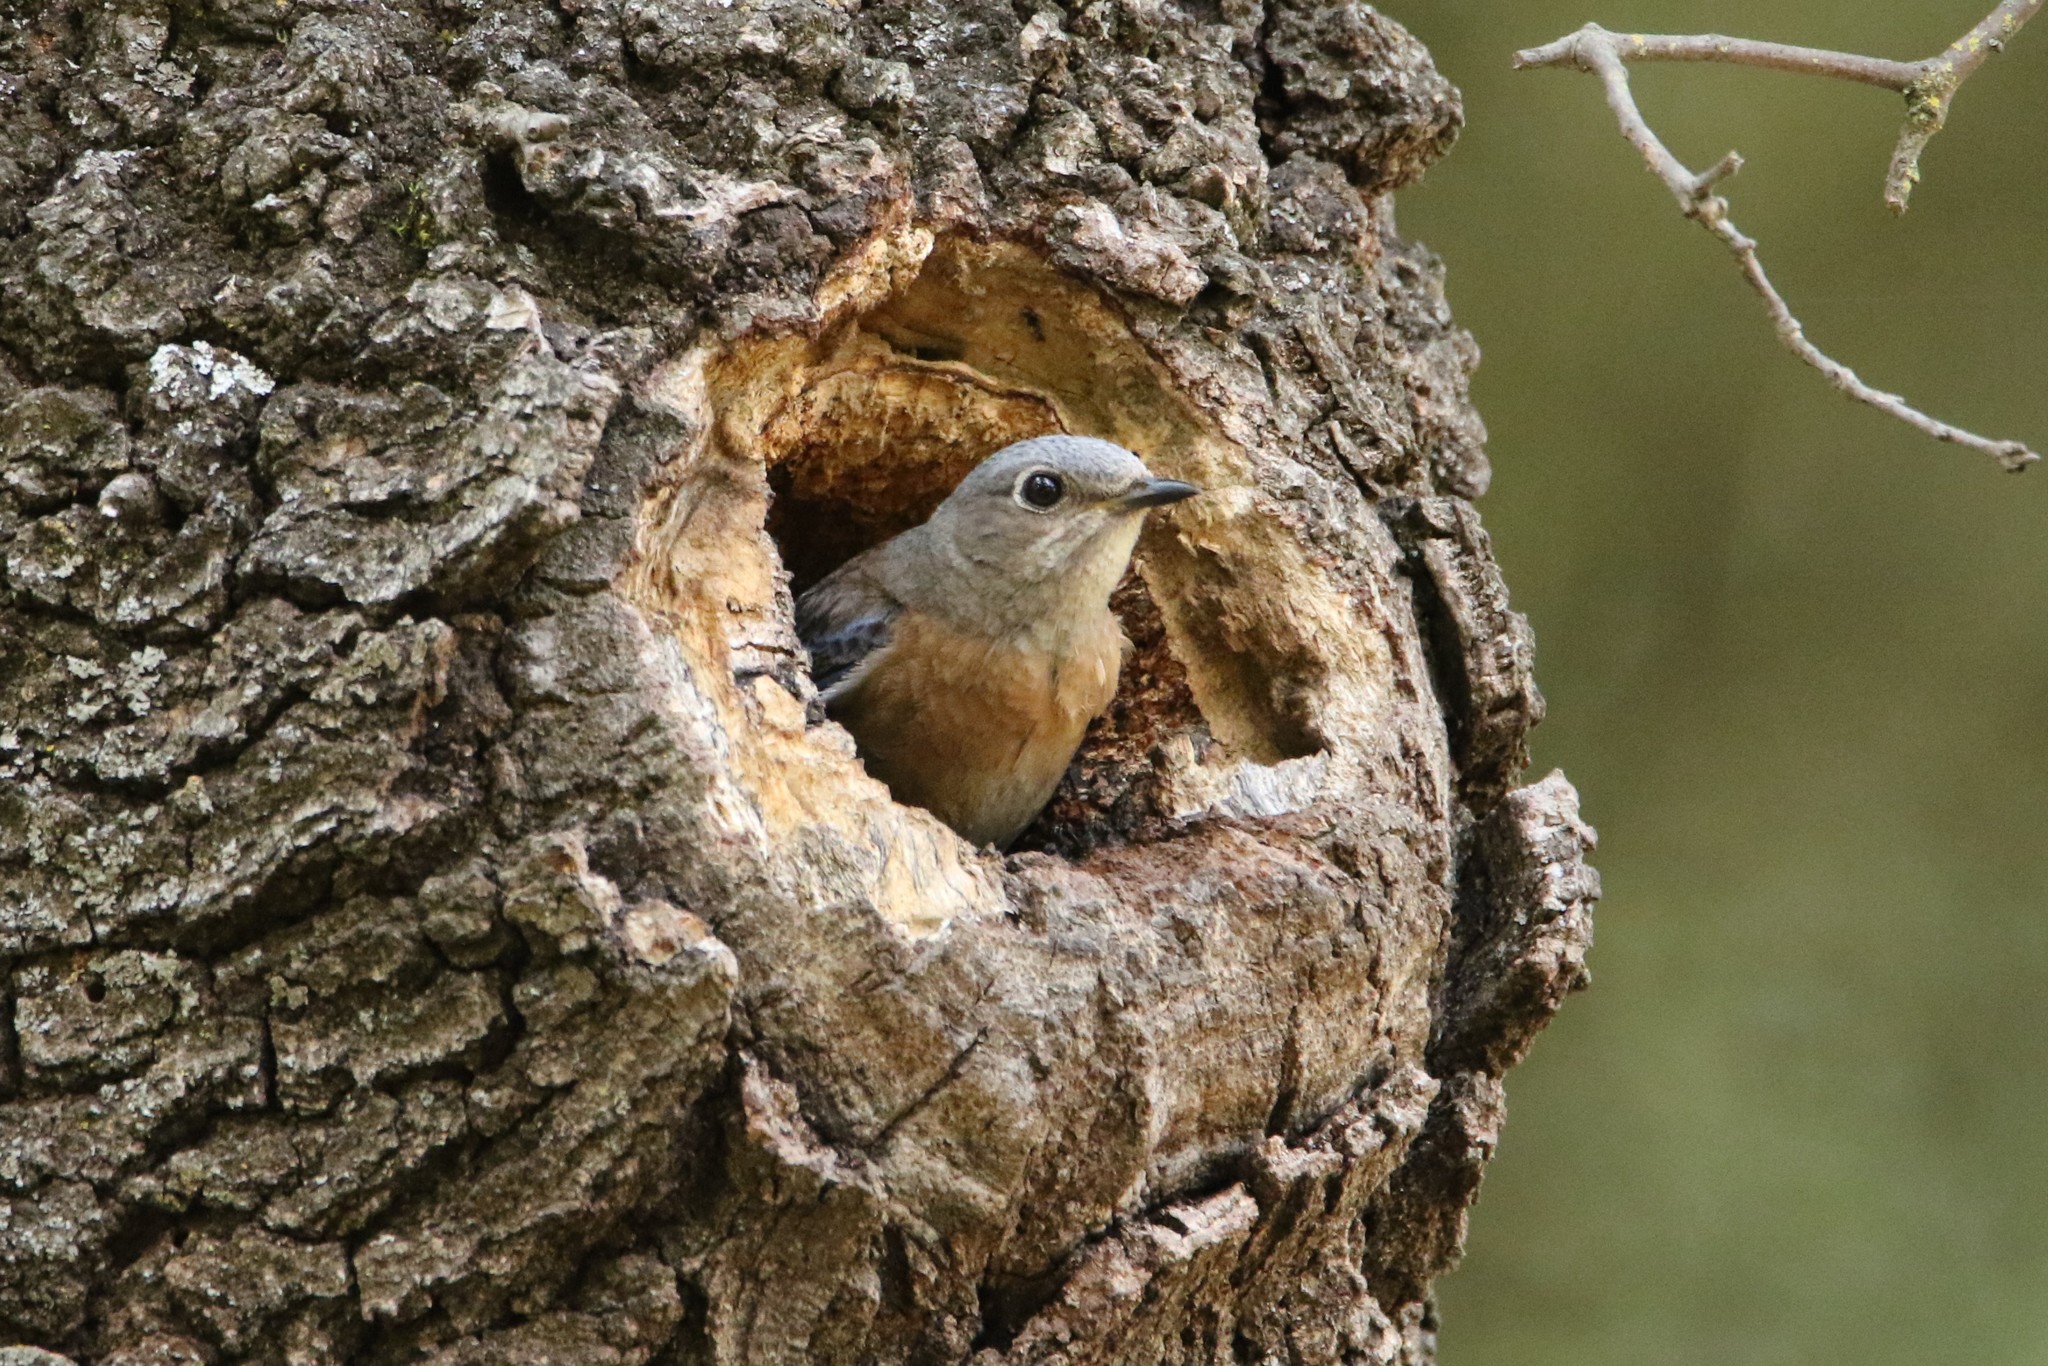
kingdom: Animalia
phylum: Chordata
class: Aves
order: Passeriformes
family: Turdidae
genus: Sialia
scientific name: Sialia mexicana
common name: Western bluebird
